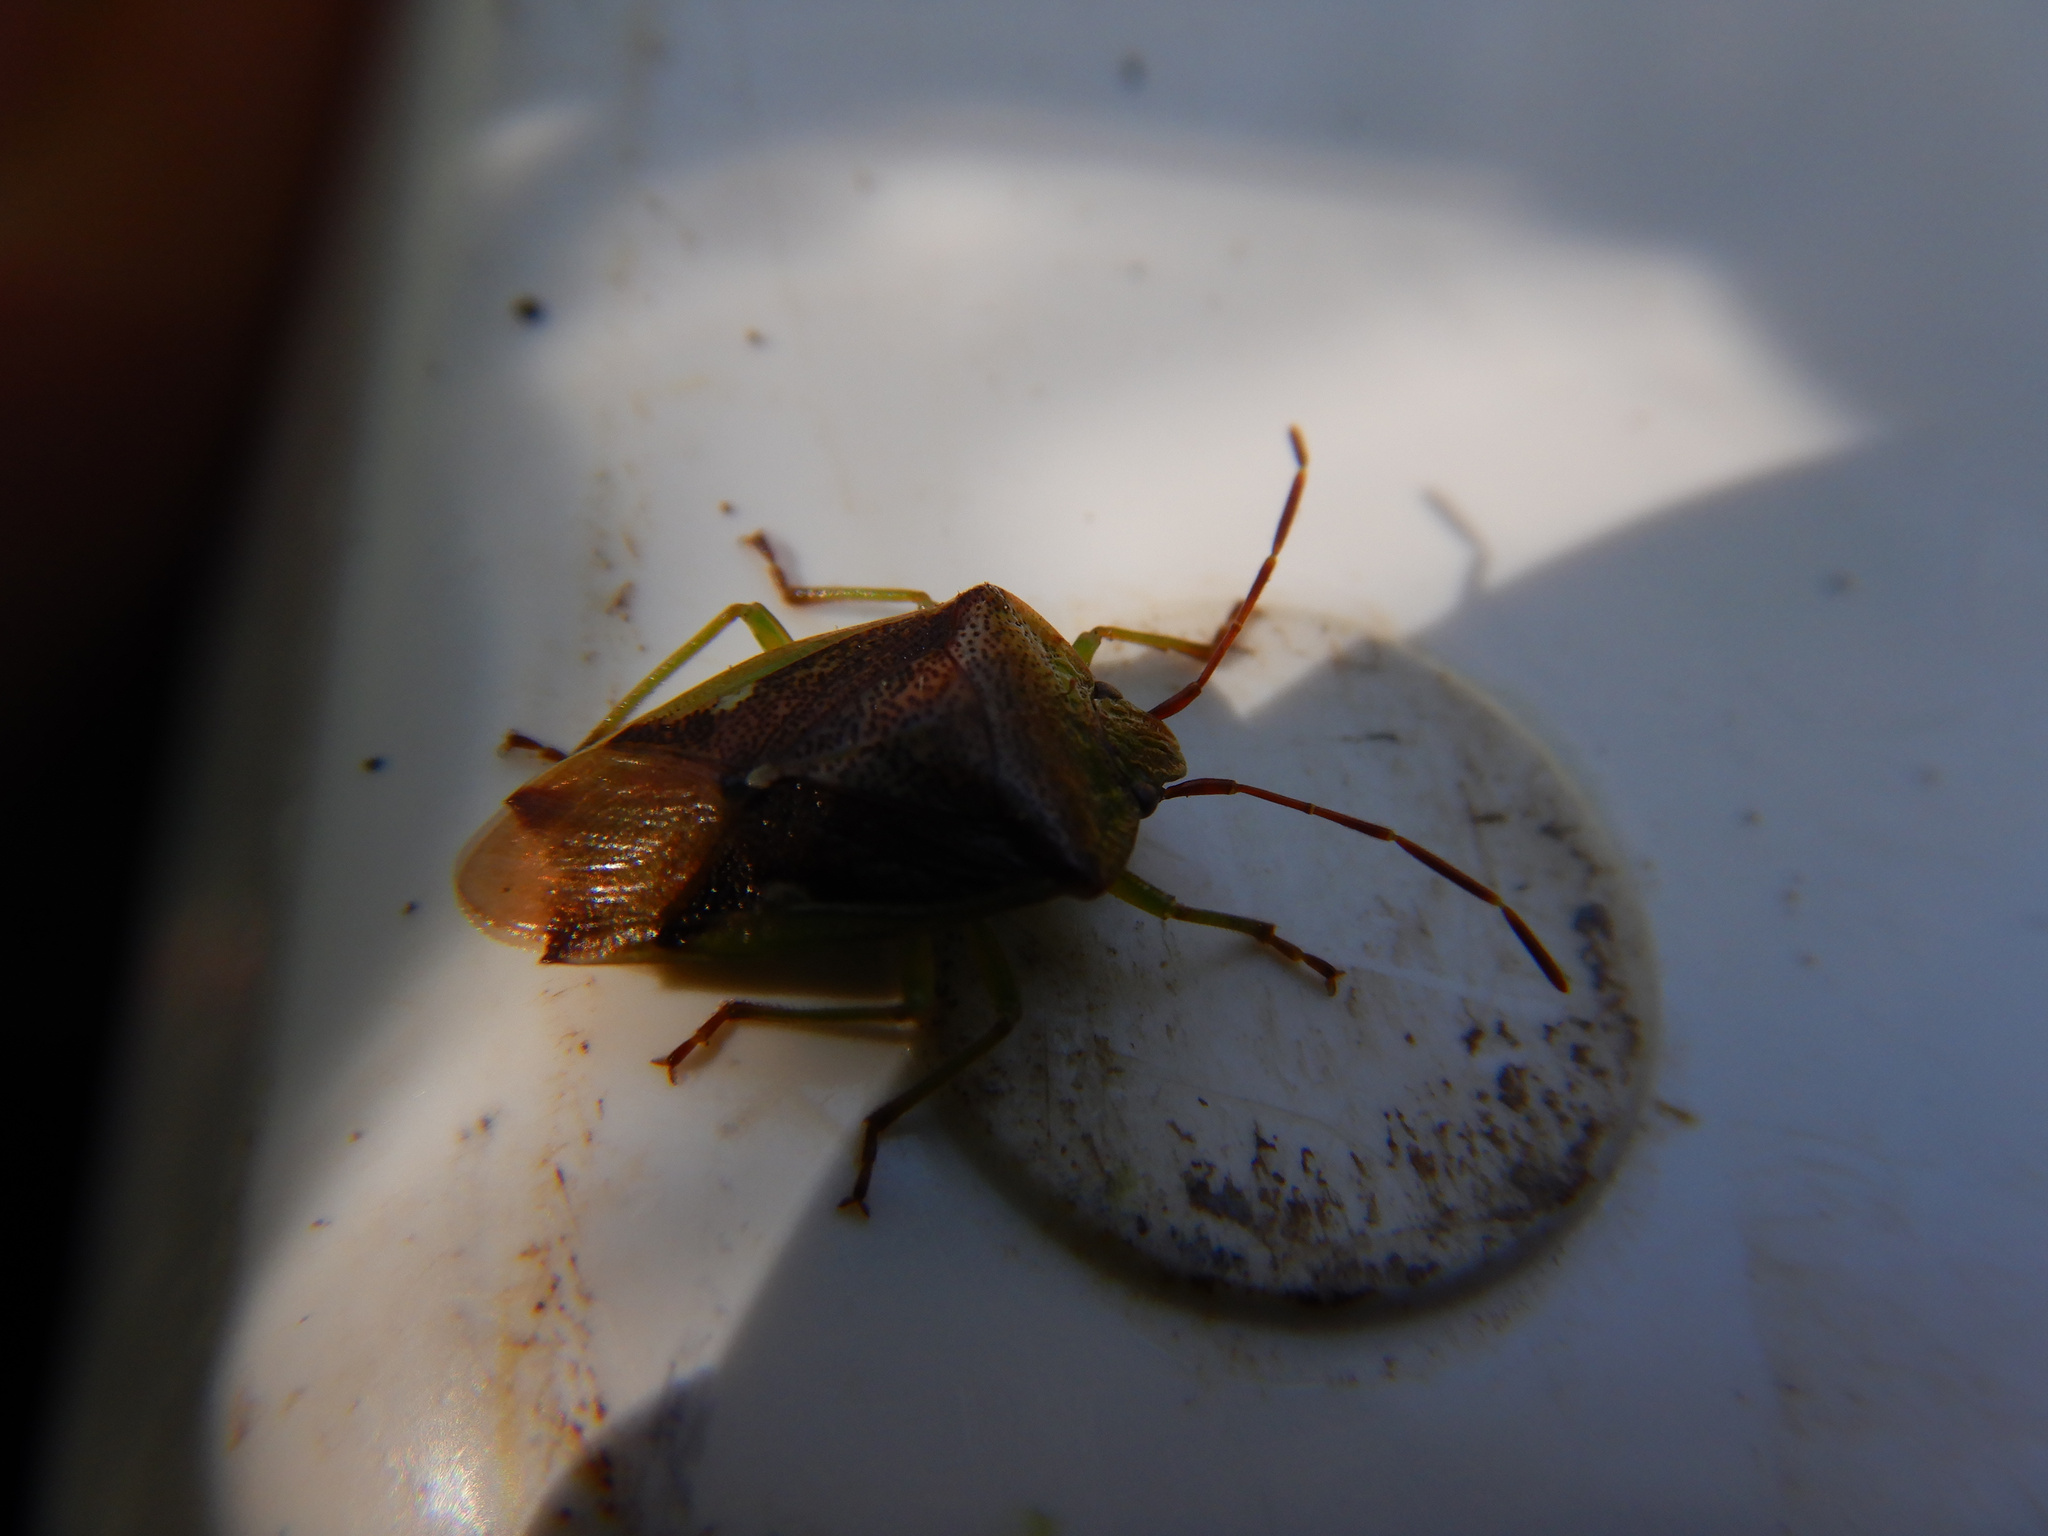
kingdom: Animalia
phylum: Arthropoda
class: Insecta
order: Hemiptera
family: Acanthosomatidae
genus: Oncacontias
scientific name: Oncacontias vittatus
